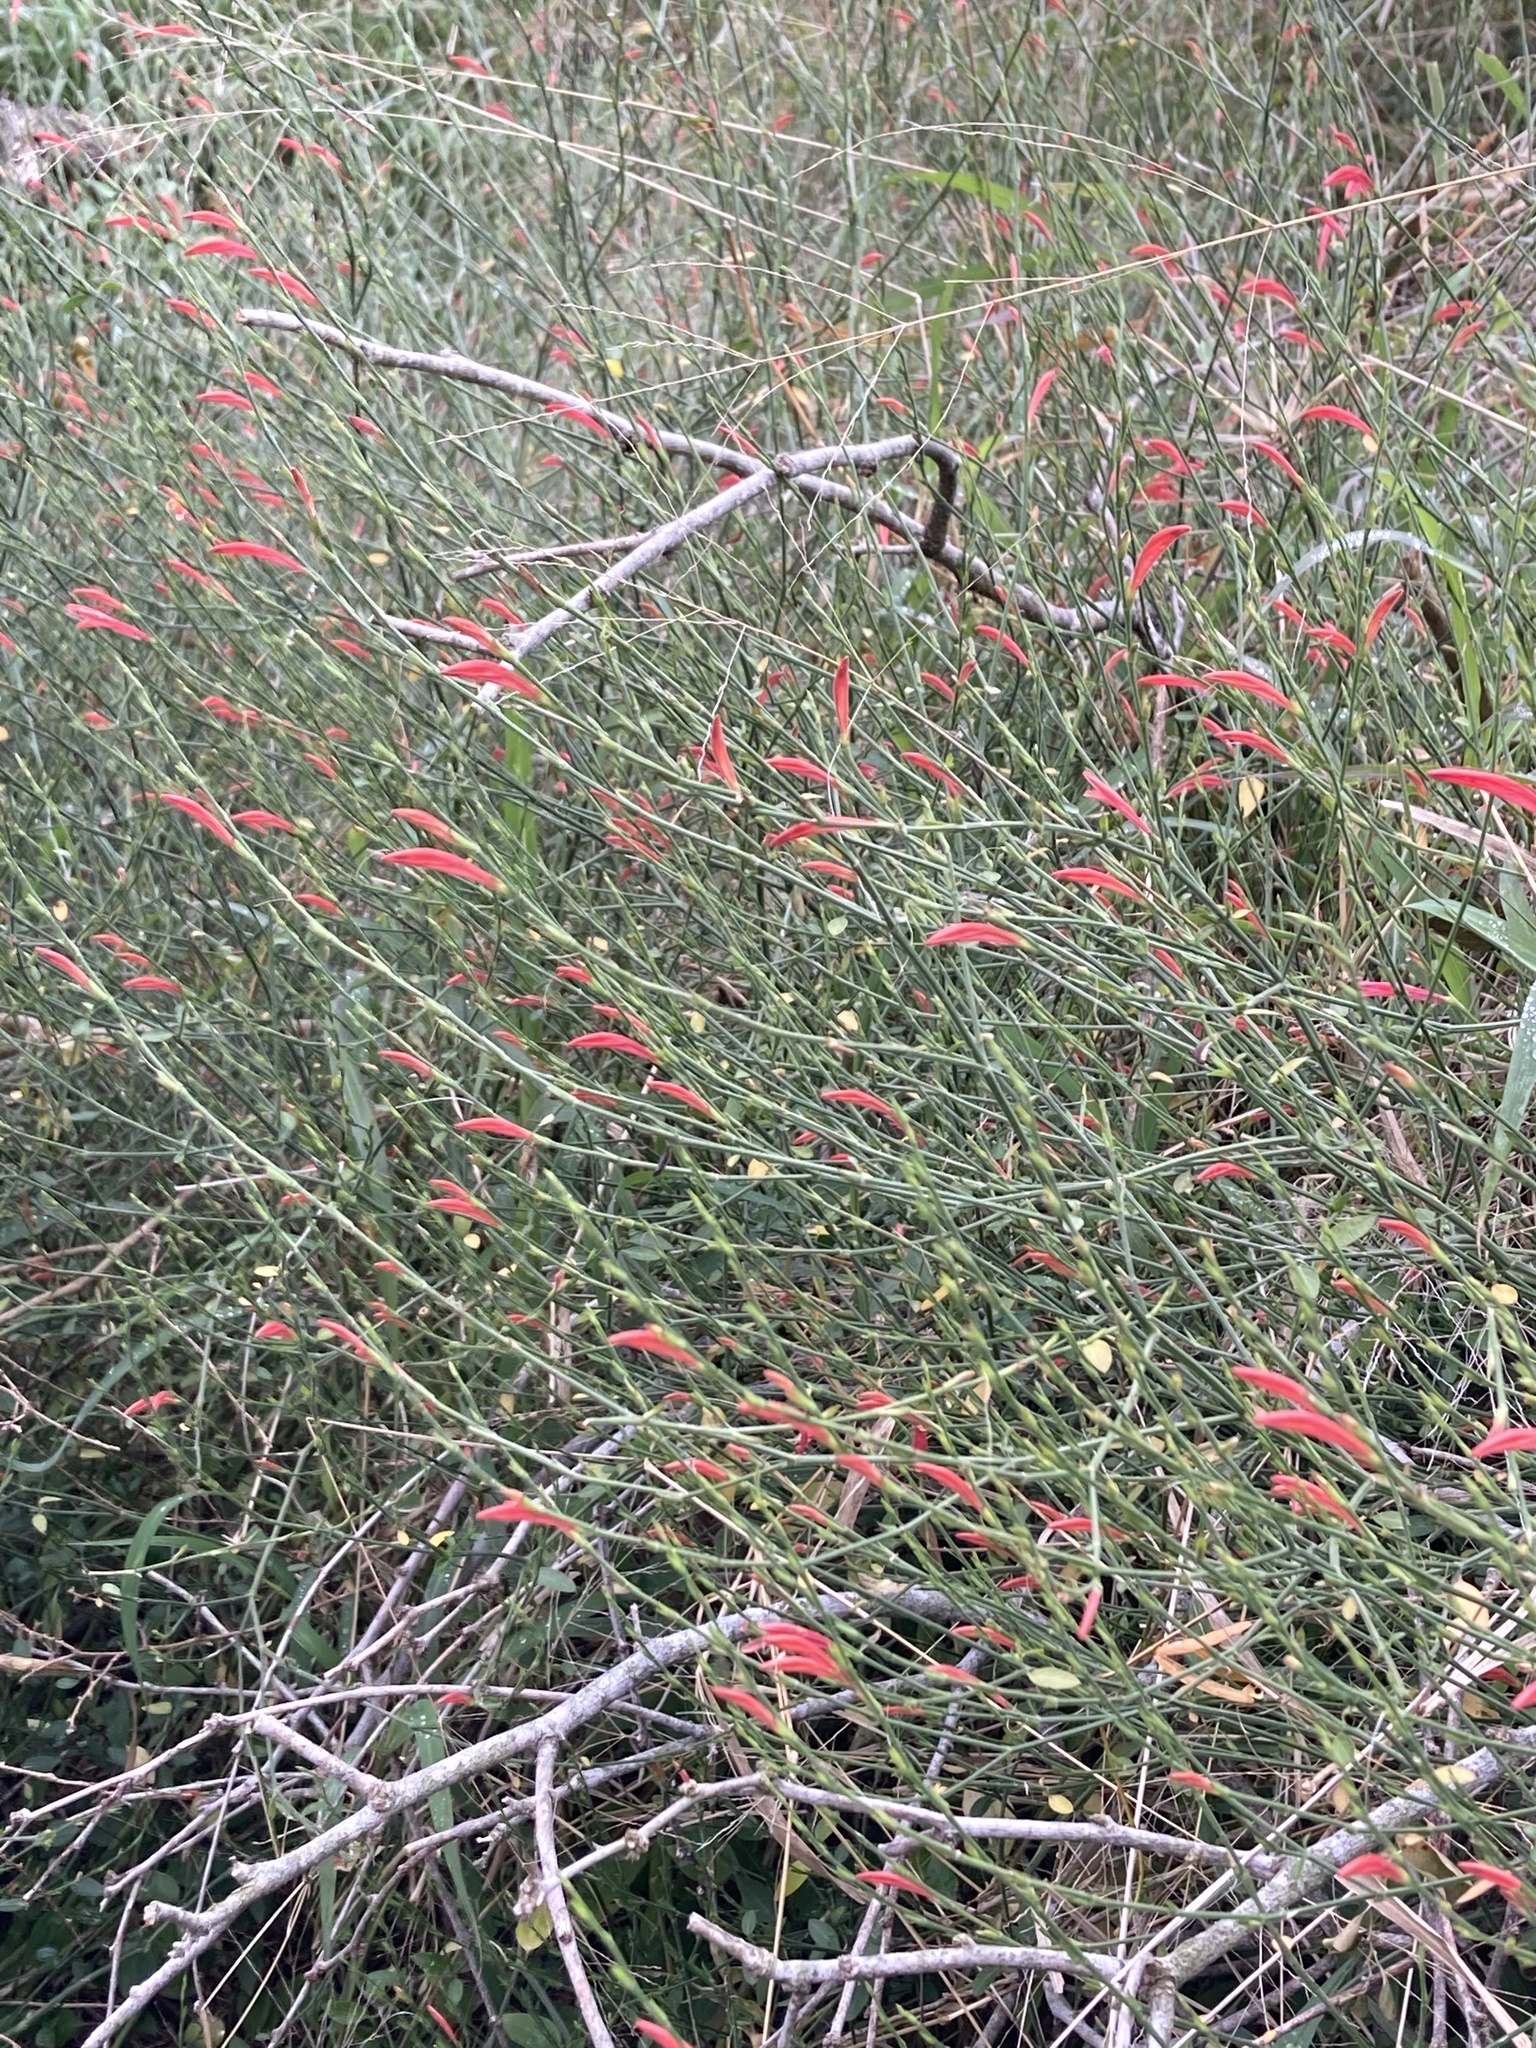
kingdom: Plantae
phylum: Tracheophyta
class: Magnoliopsida
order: Lamiales
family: Acanthaceae
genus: Dicliptera
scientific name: Dicliptera sexangularis
